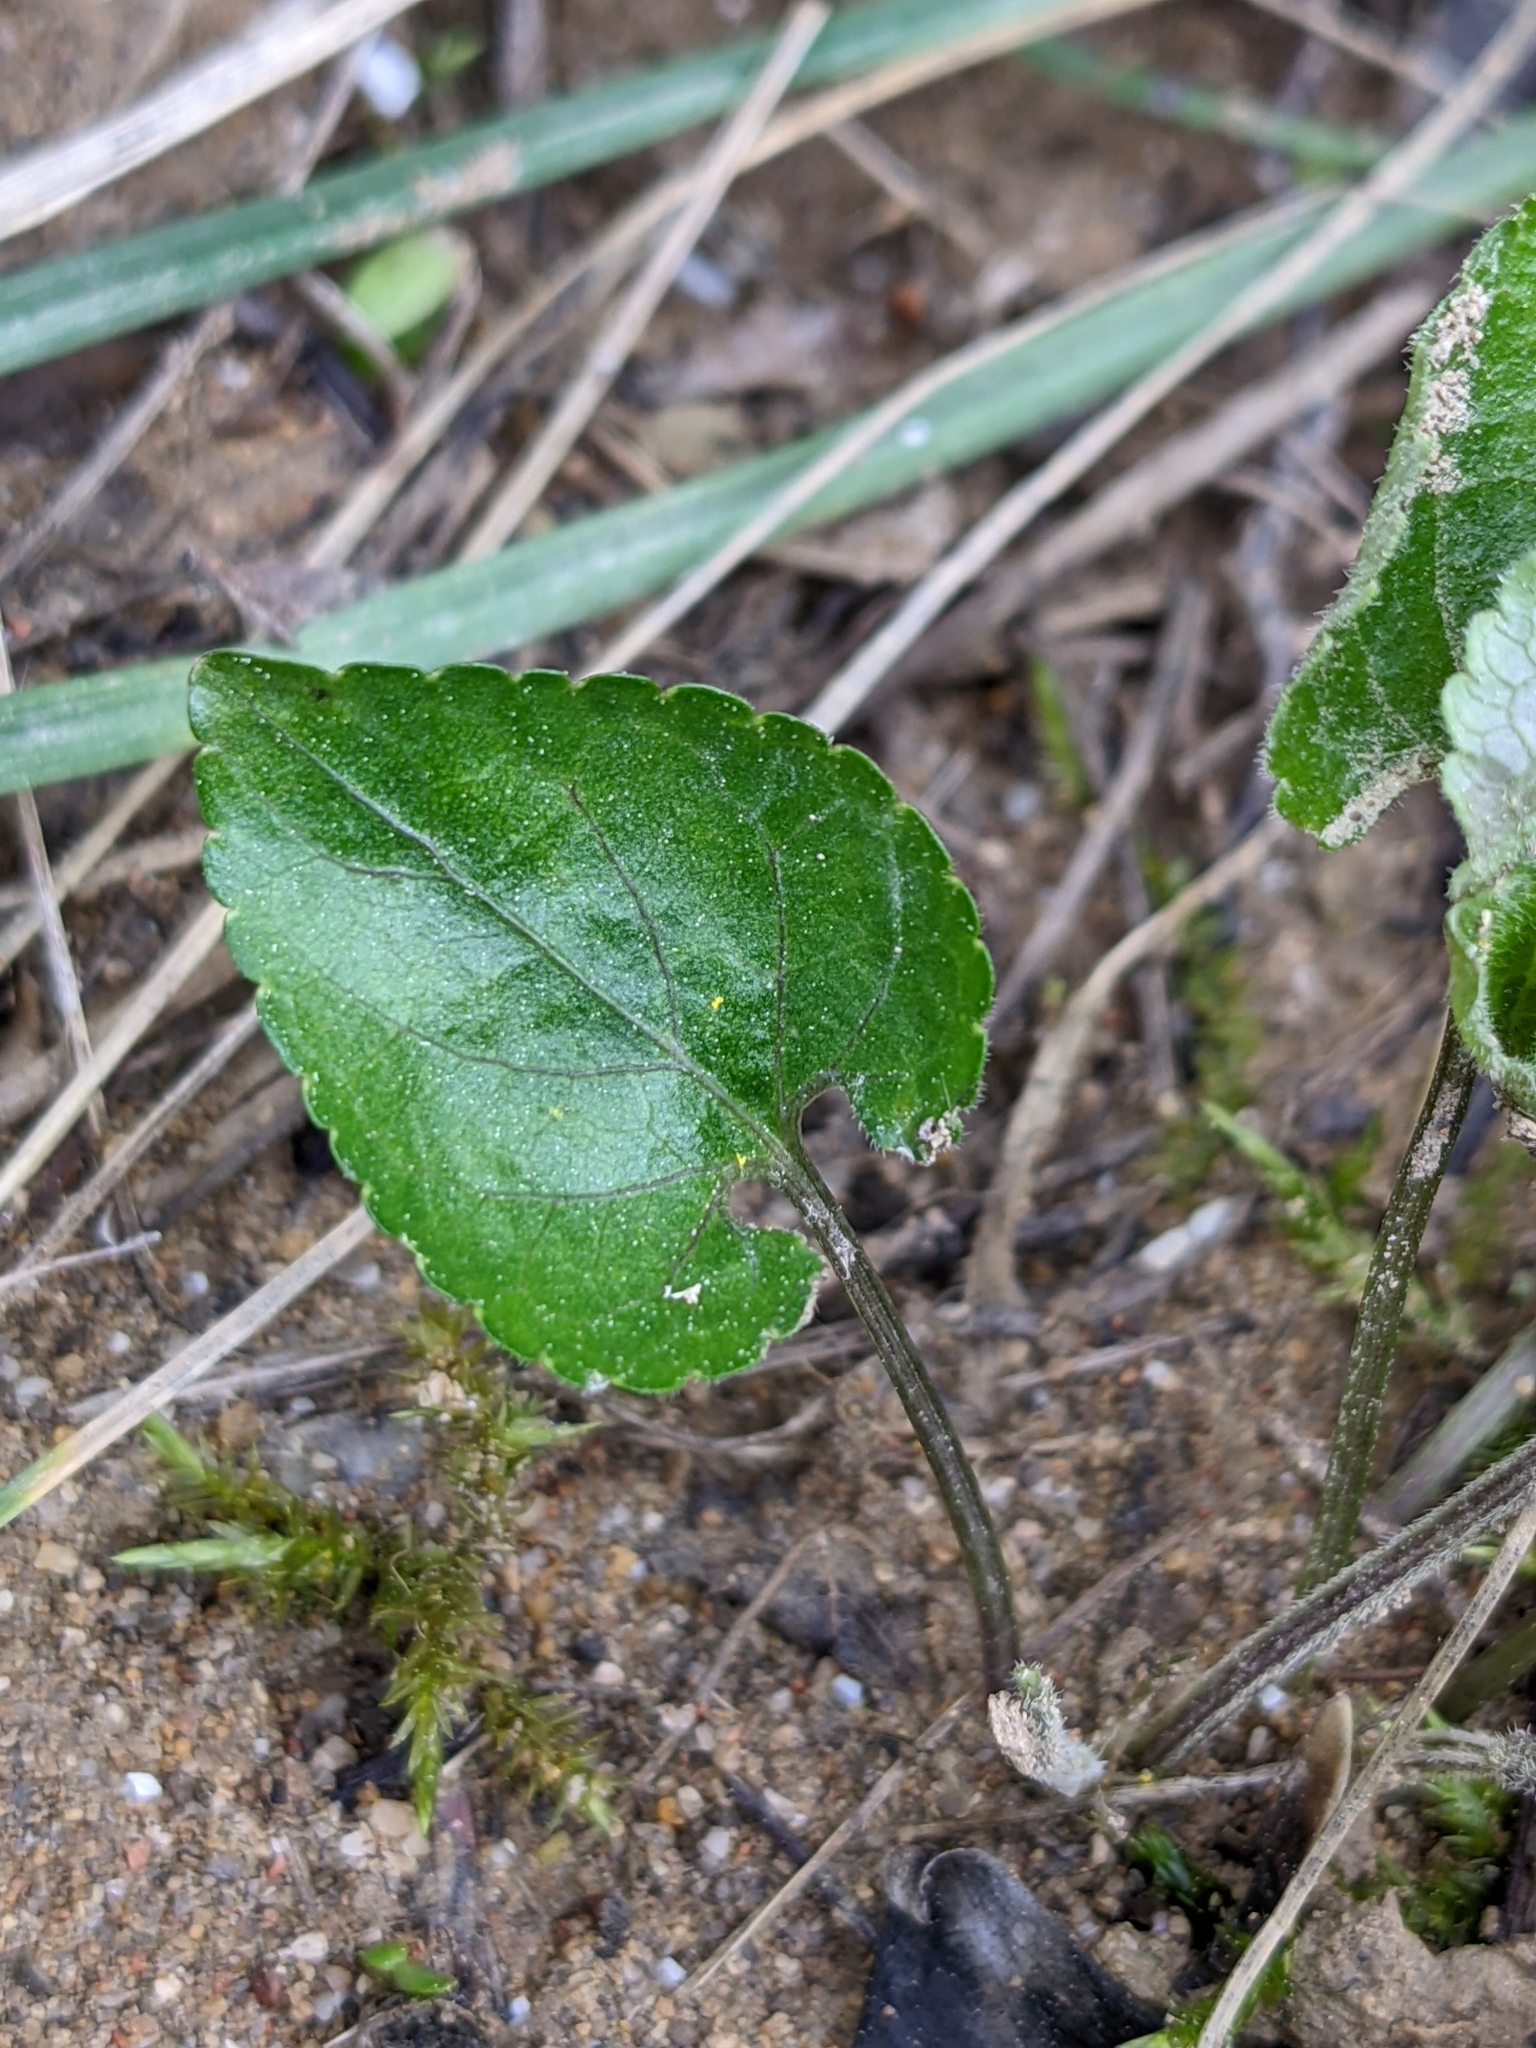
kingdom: Plantae
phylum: Tracheophyta
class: Magnoliopsida
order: Malpighiales
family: Violaceae
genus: Viola
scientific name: Viola alba
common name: White violet
